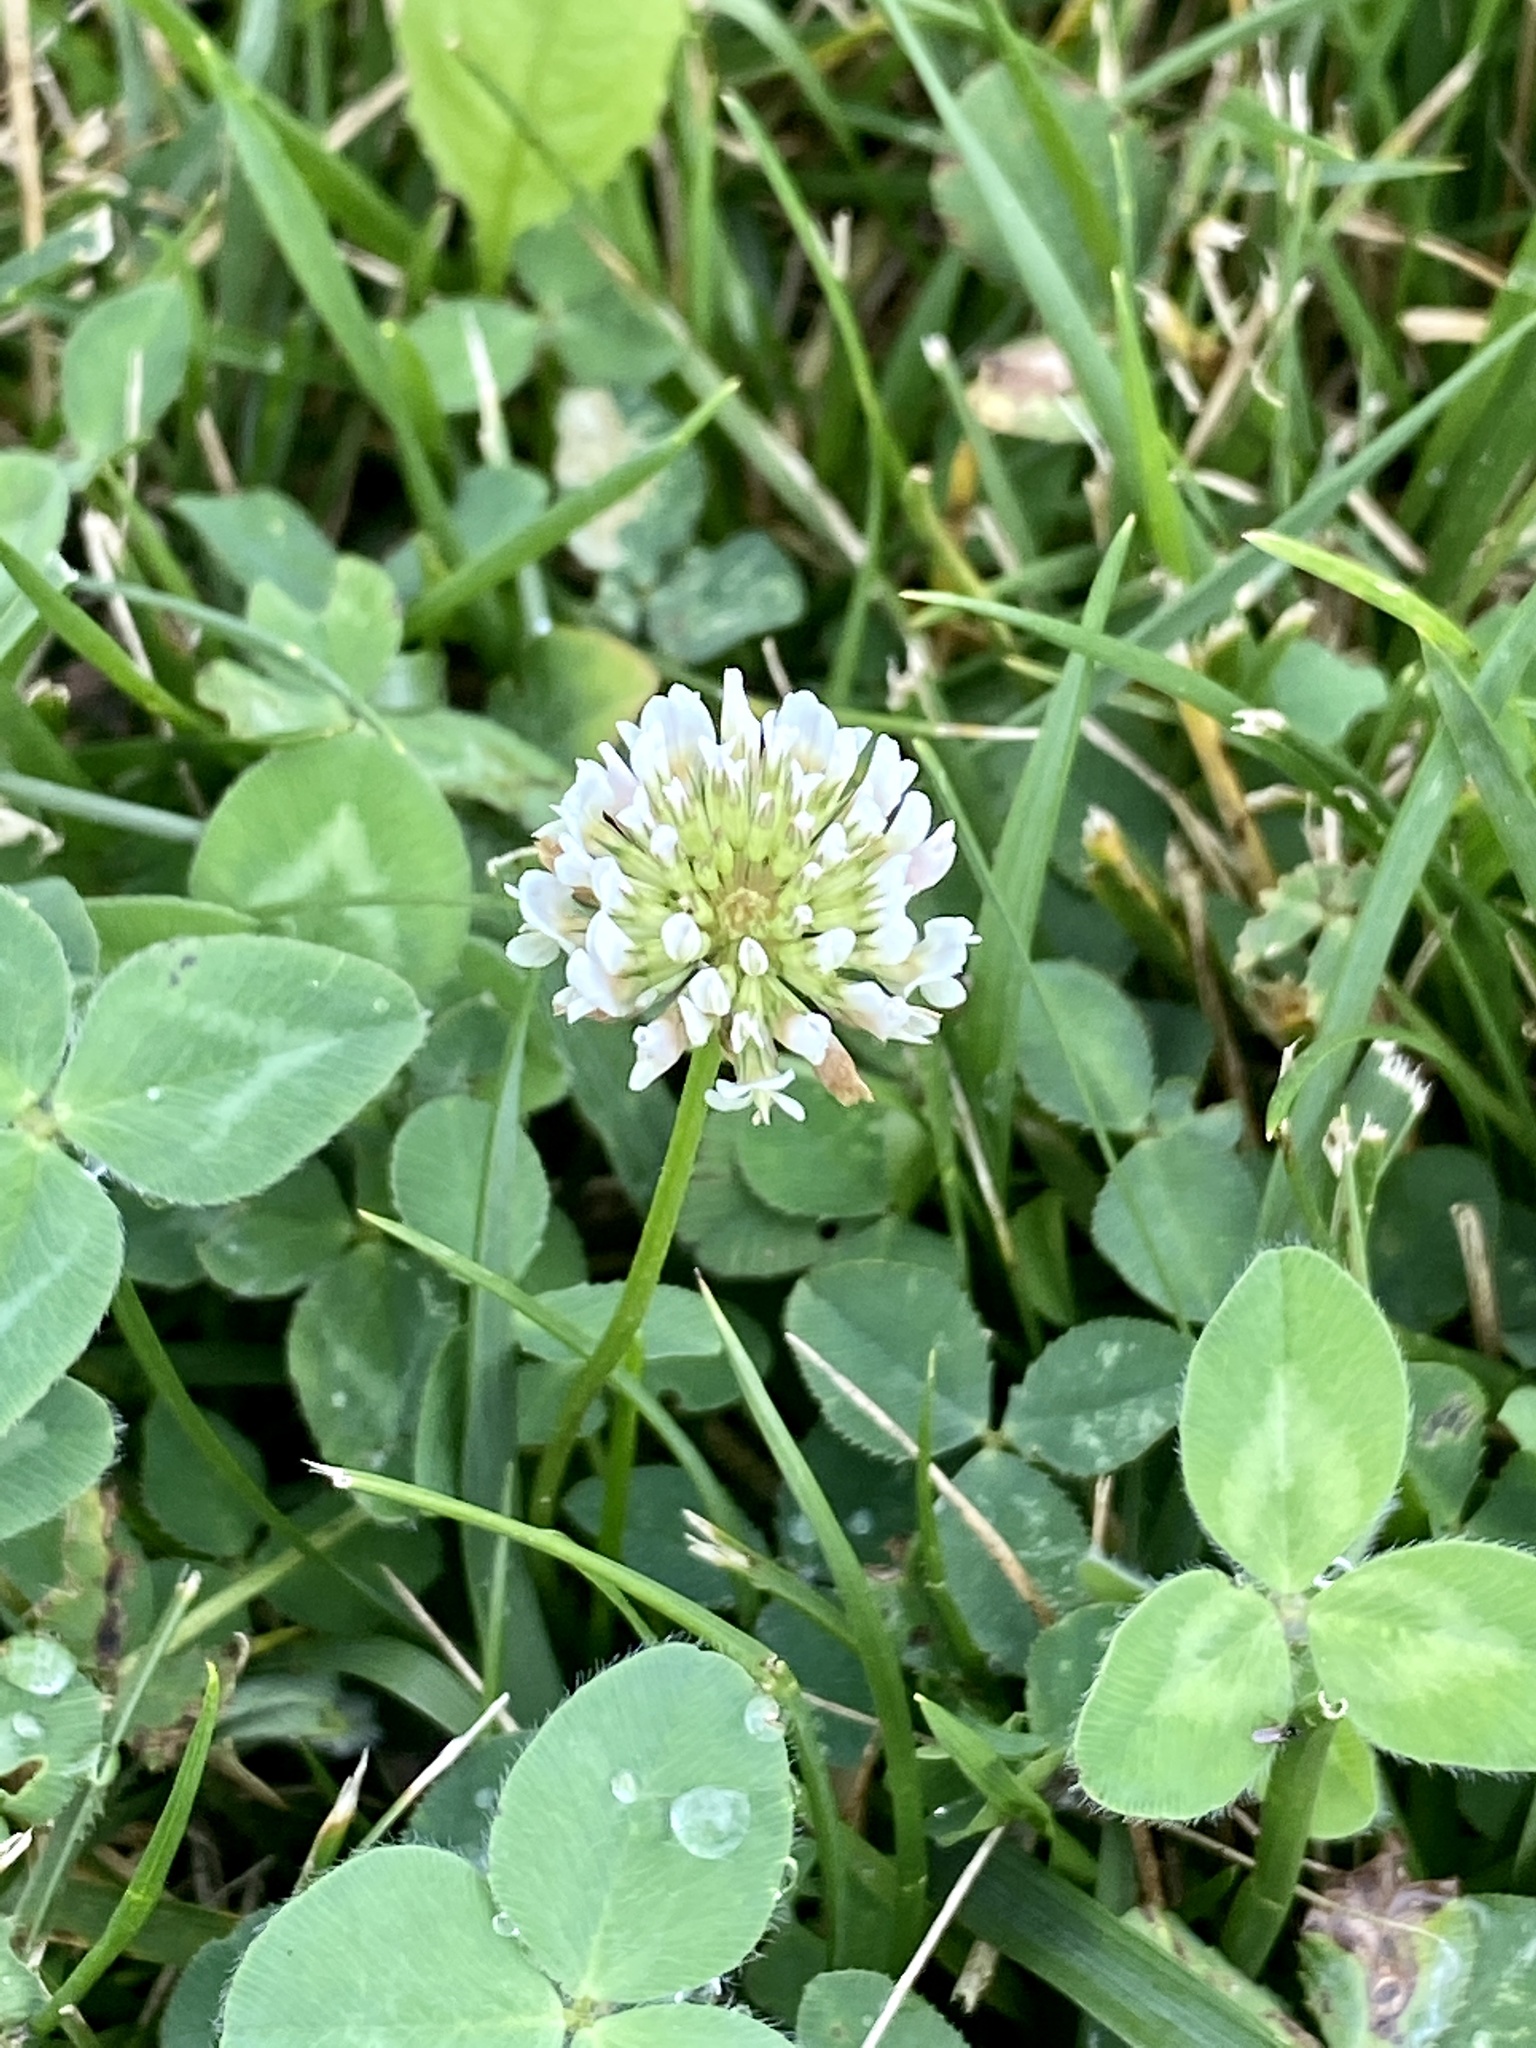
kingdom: Plantae
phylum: Tracheophyta
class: Magnoliopsida
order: Fabales
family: Fabaceae
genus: Trifolium
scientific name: Trifolium repens
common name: White clover
